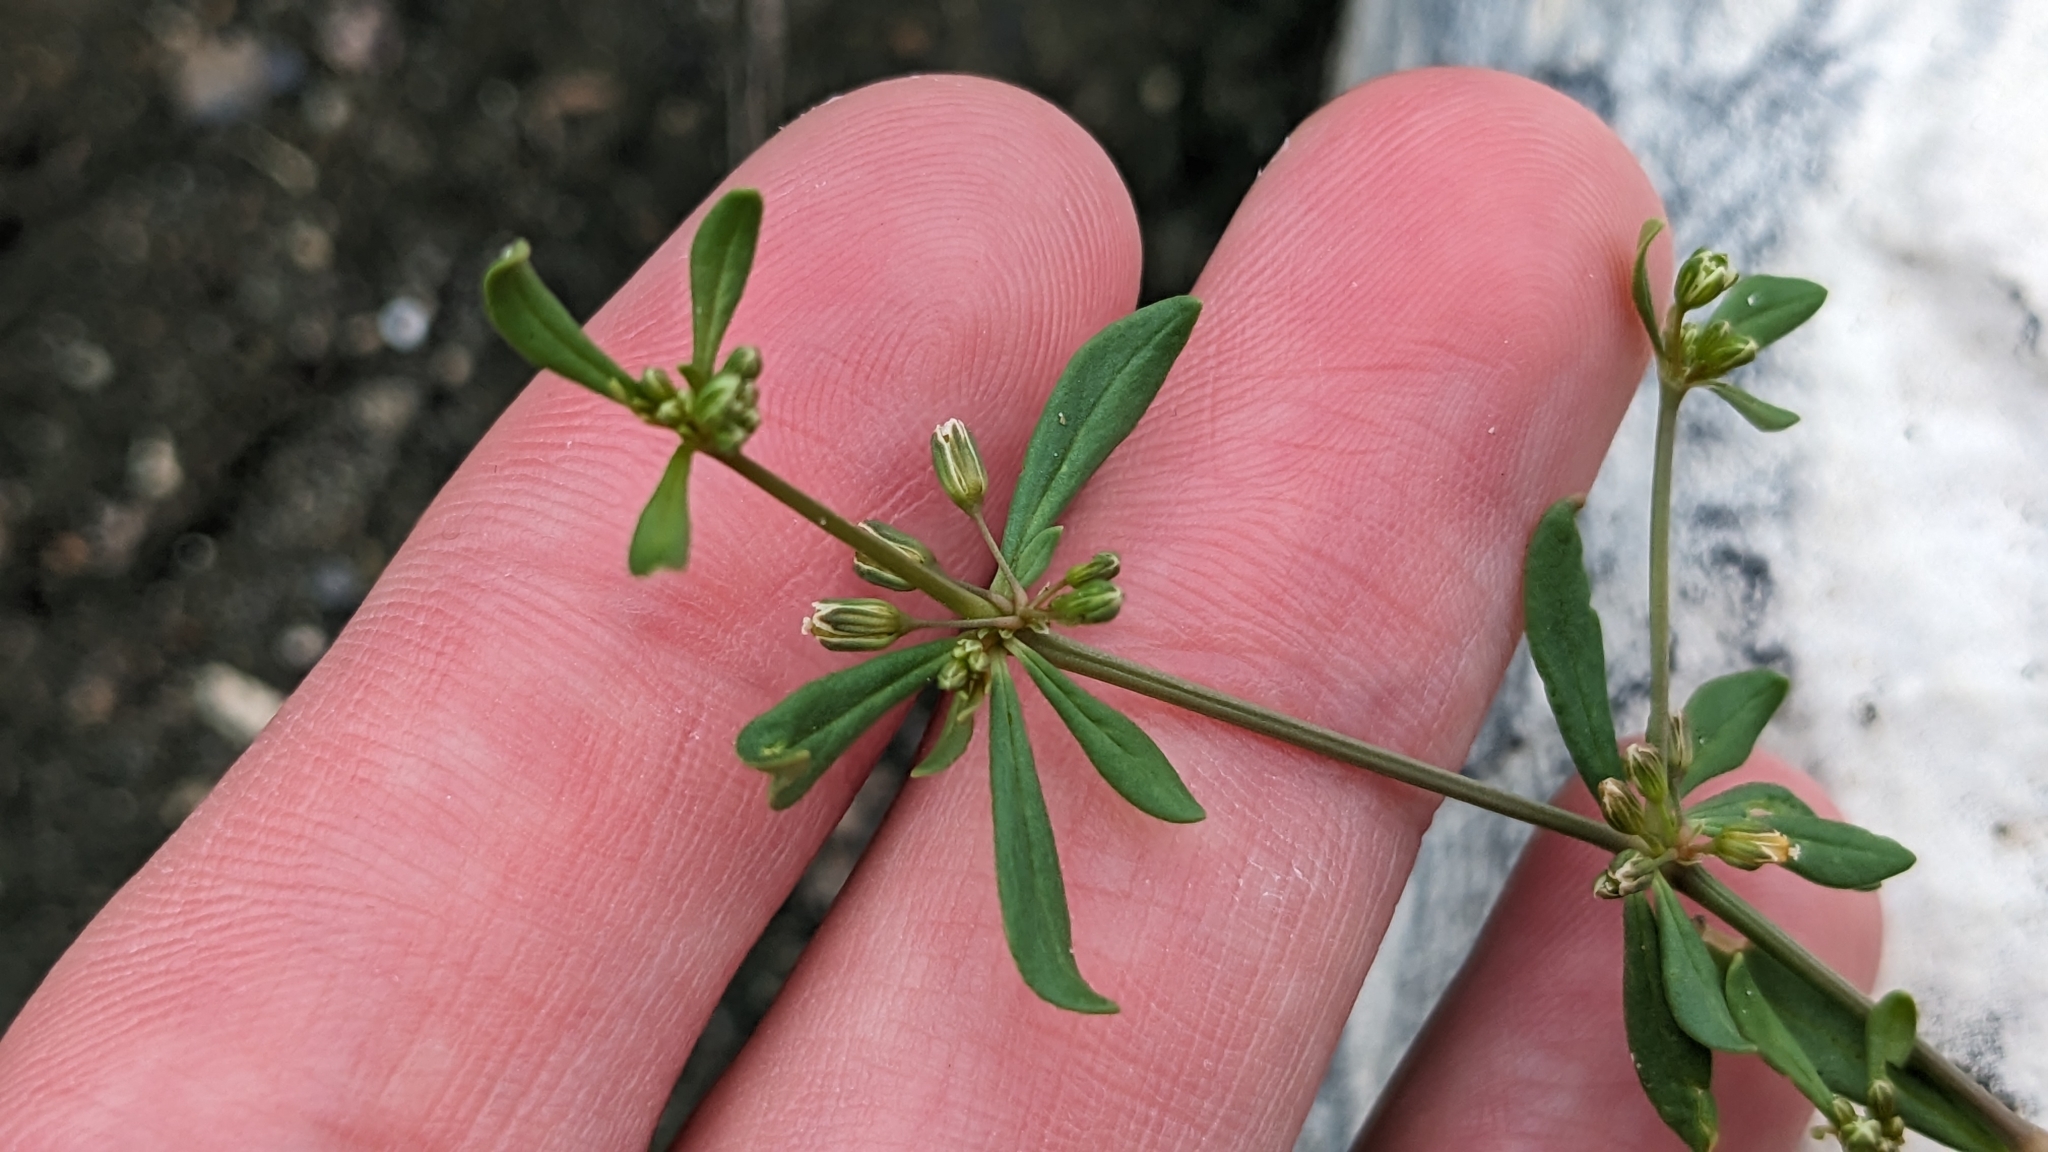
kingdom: Plantae
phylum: Tracheophyta
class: Magnoliopsida
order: Caryophyllales
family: Molluginaceae
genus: Mollugo
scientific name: Mollugo verticillata
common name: Green carpetweed
